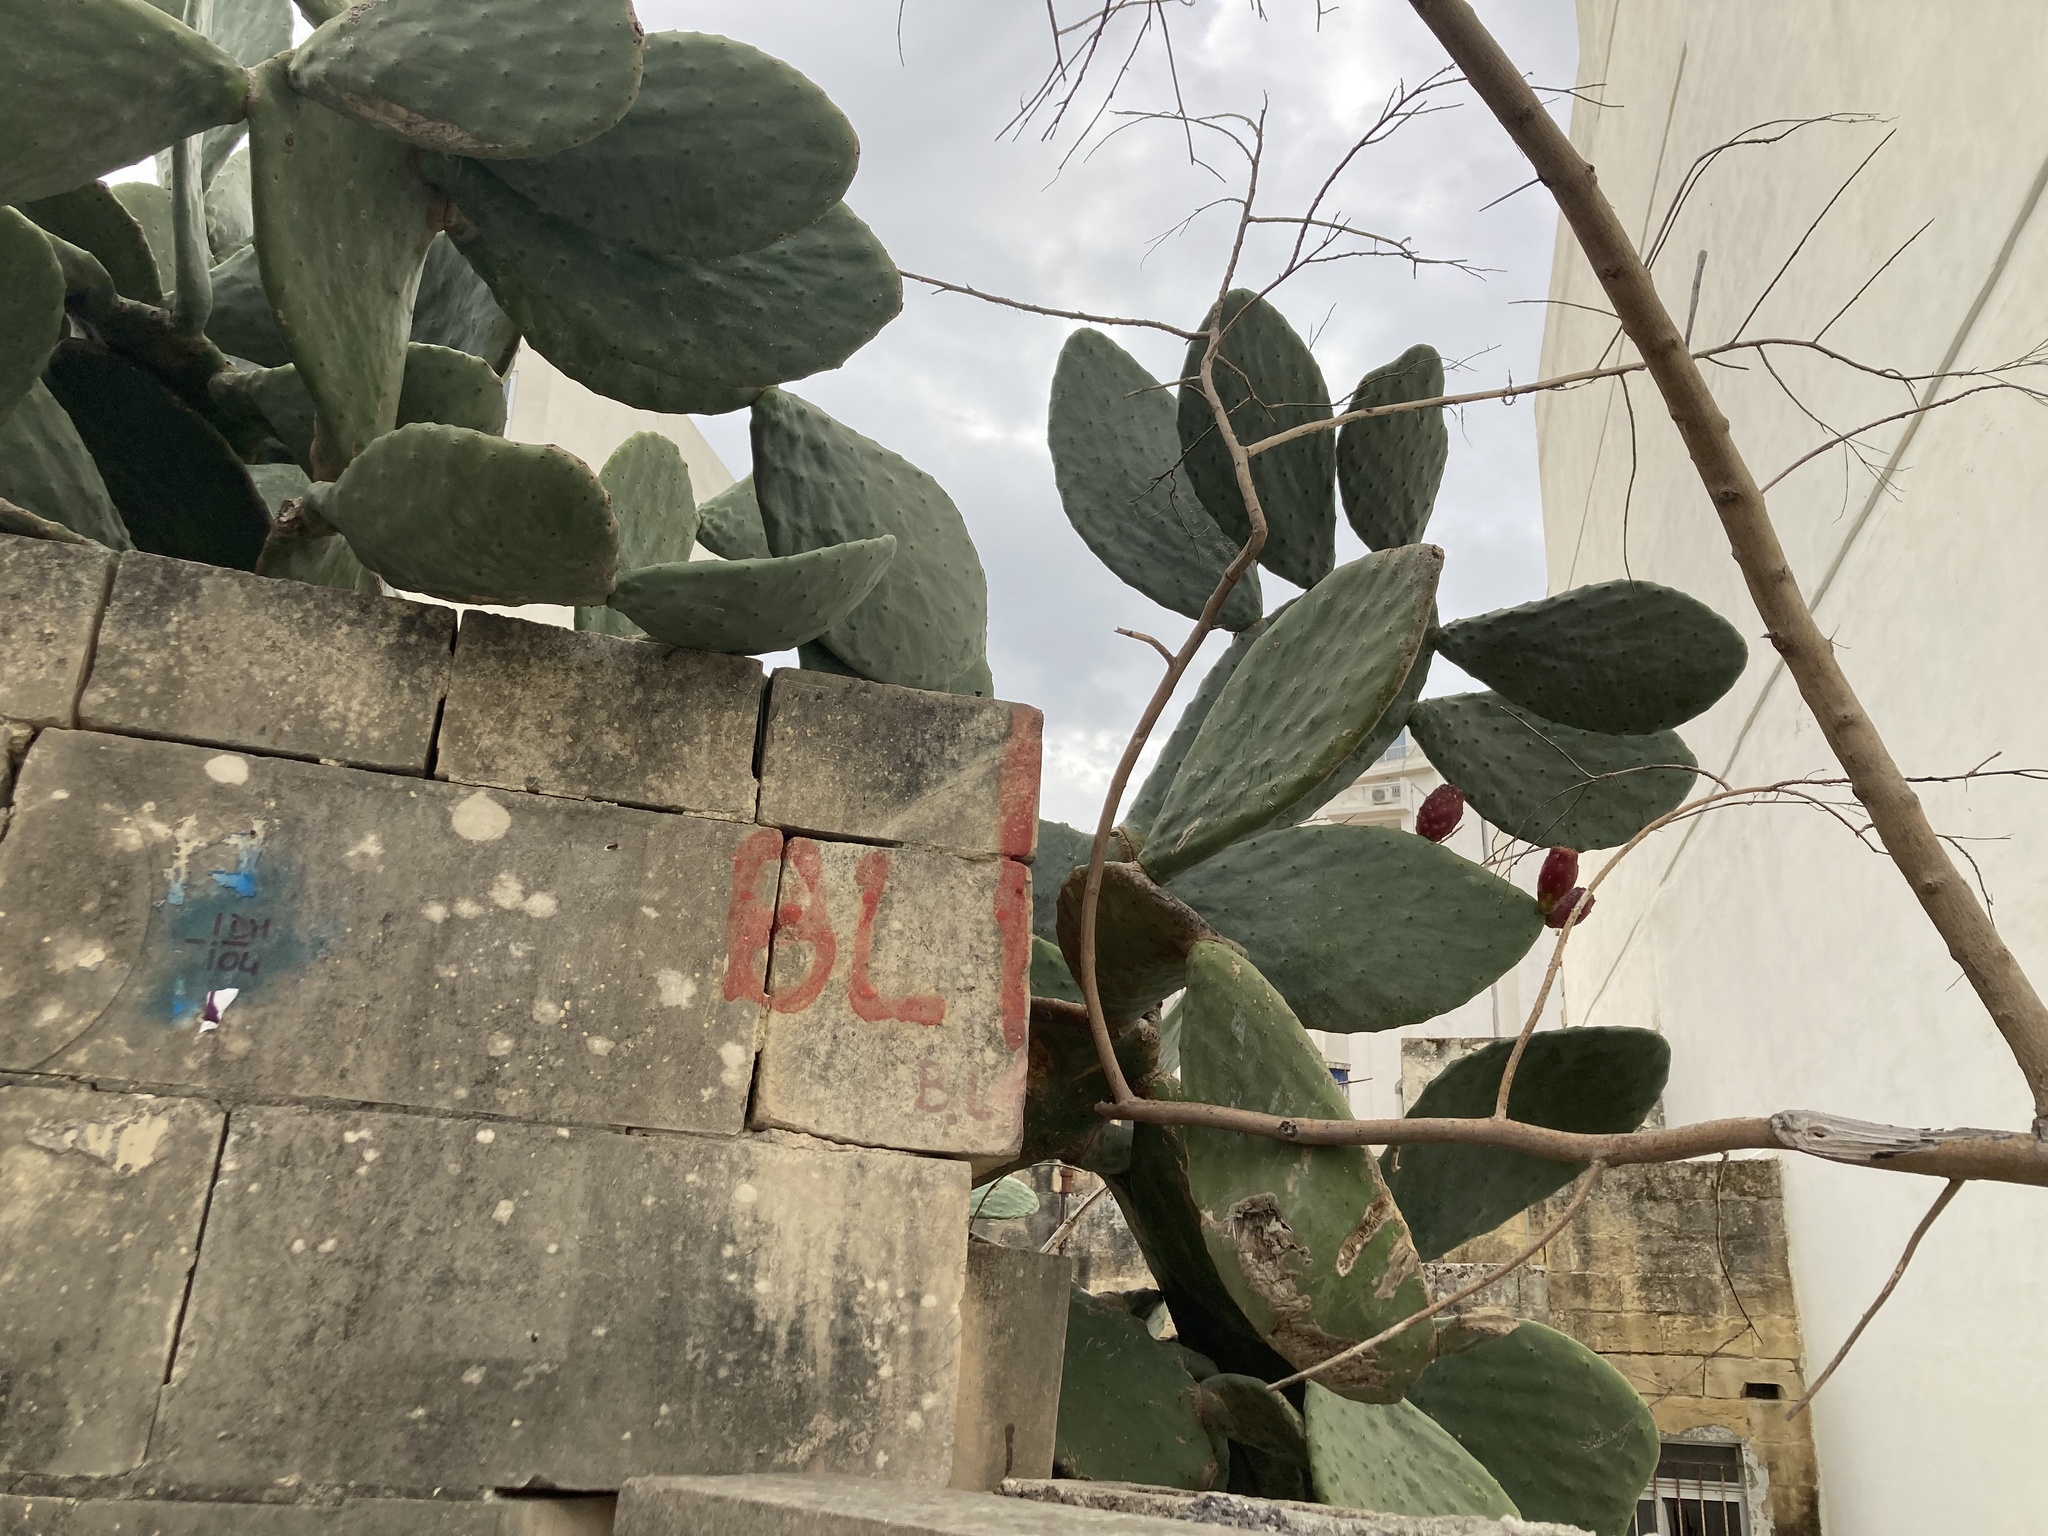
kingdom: Plantae
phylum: Tracheophyta
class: Magnoliopsida
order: Caryophyllales
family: Cactaceae
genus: Opuntia
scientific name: Opuntia ficus-indica
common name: Barbary fig
